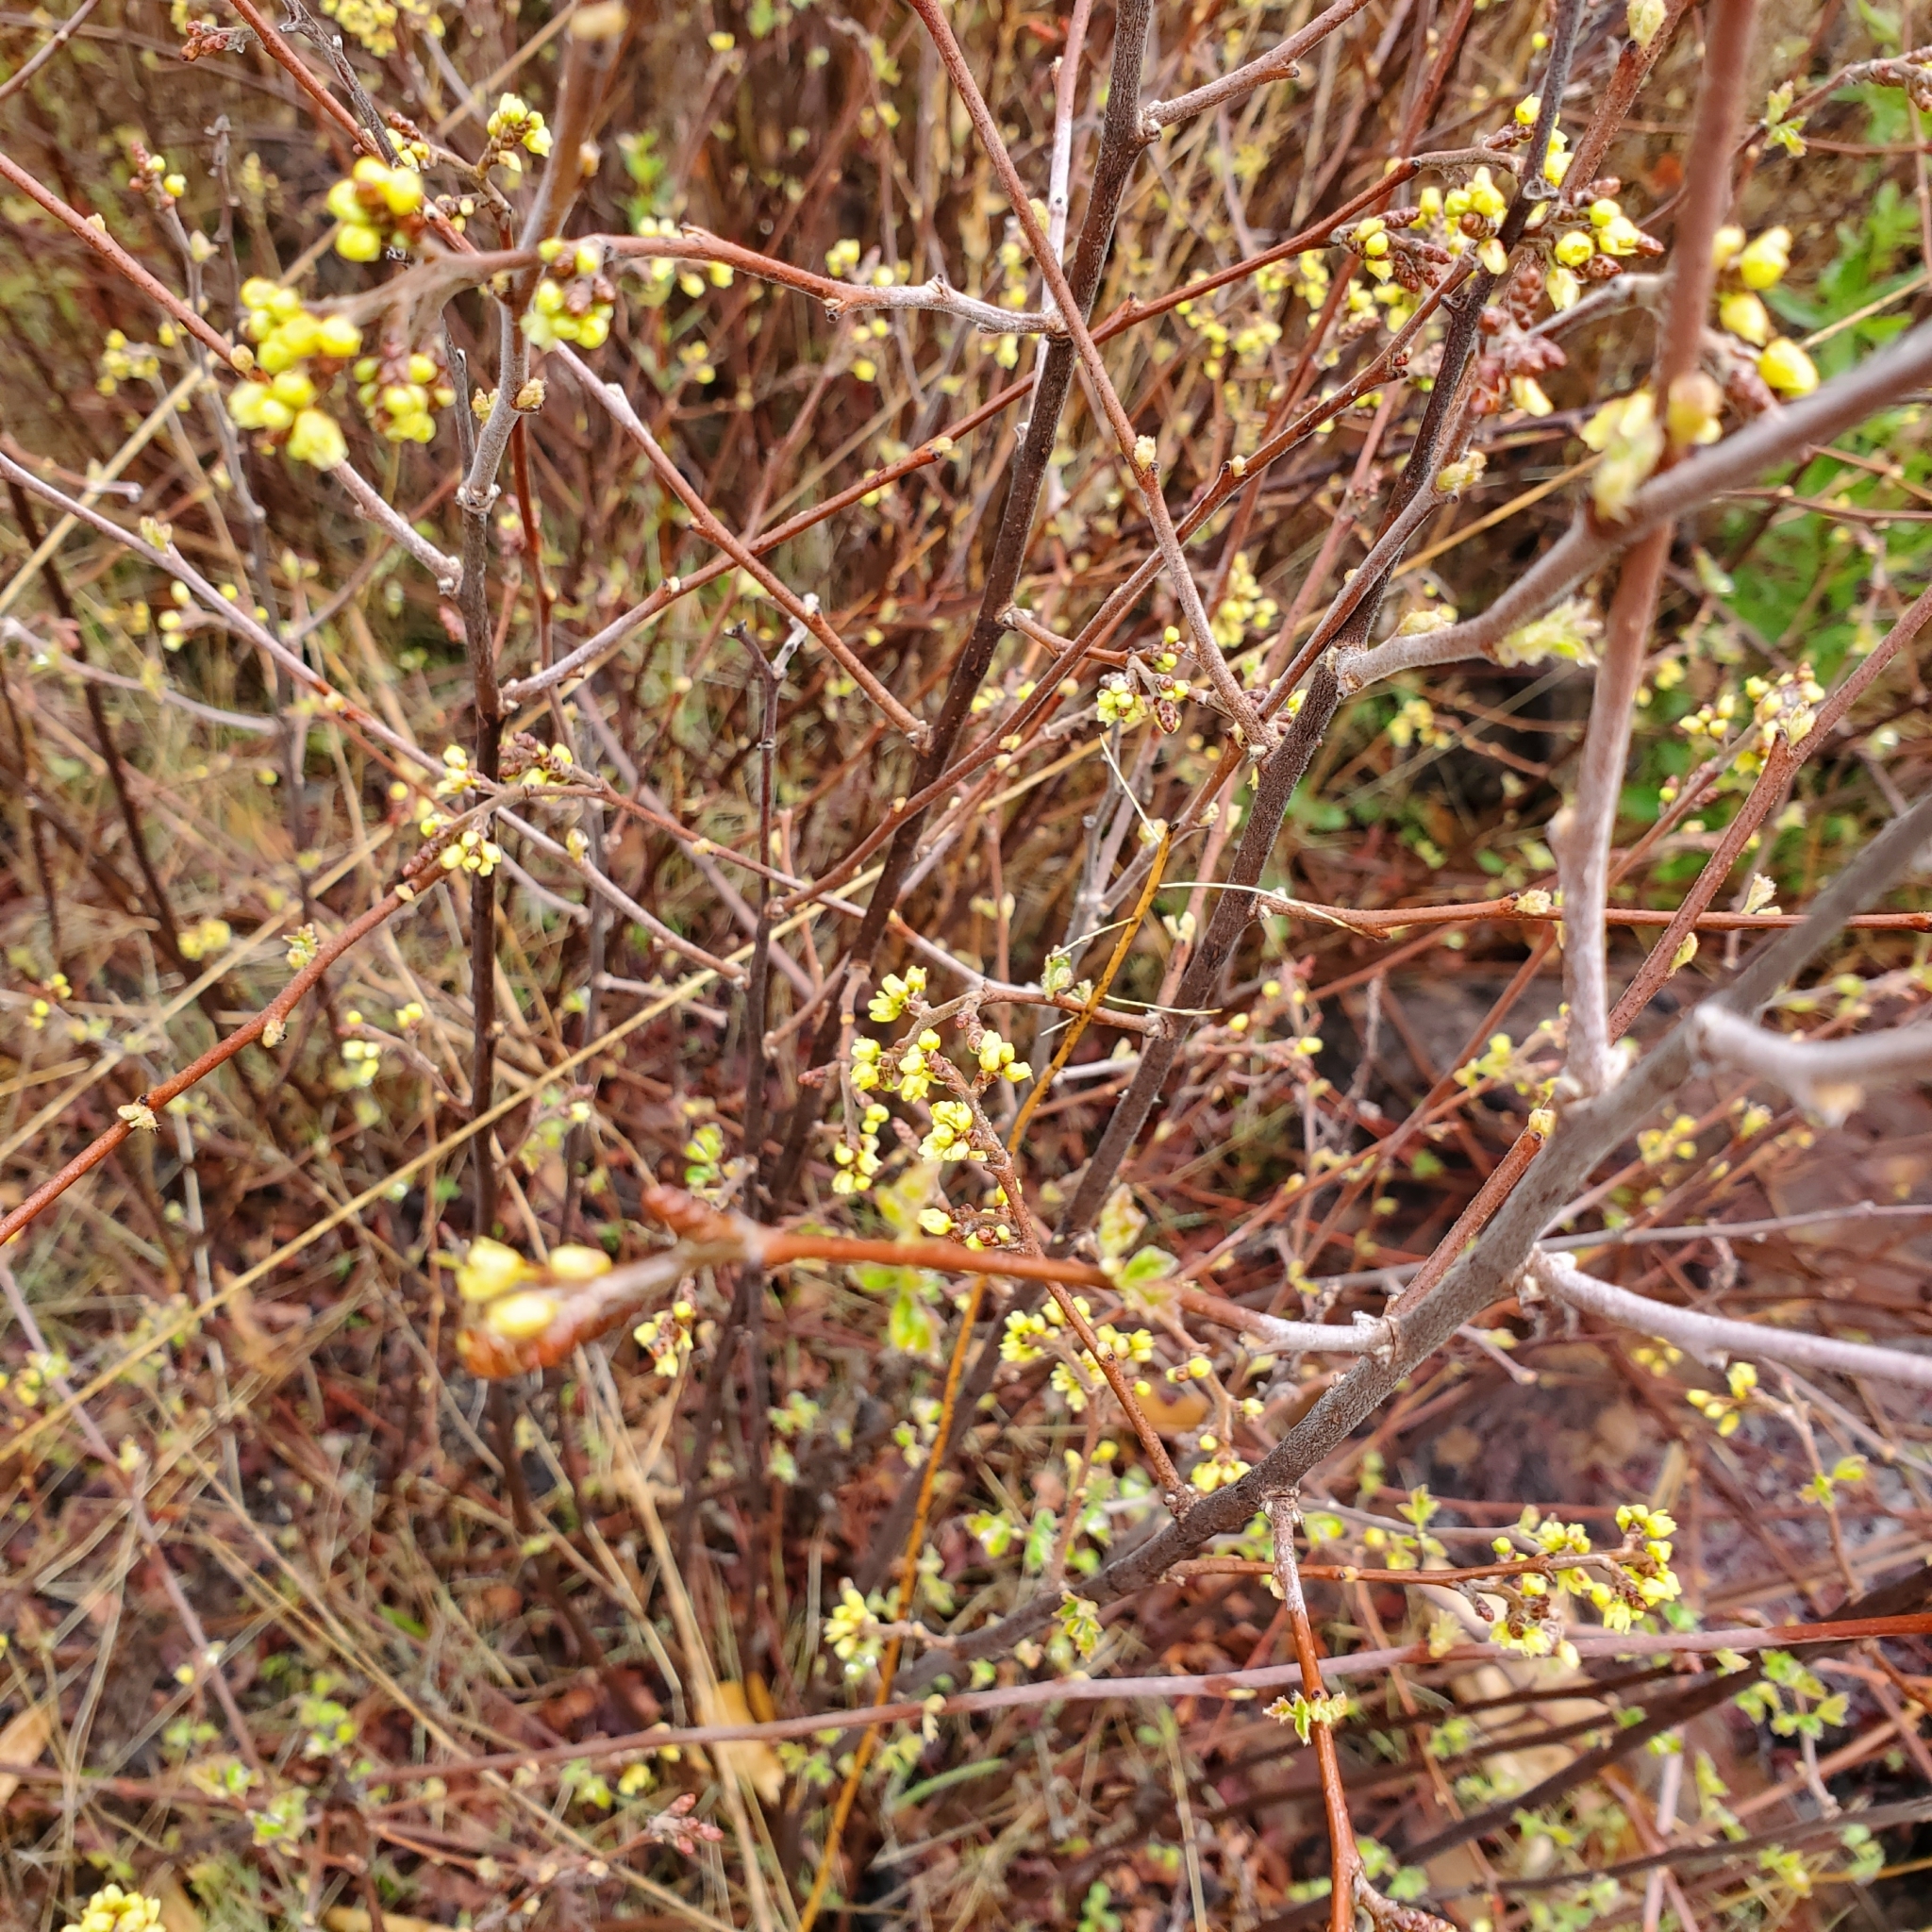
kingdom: Plantae
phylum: Tracheophyta
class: Magnoliopsida
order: Sapindales
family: Anacardiaceae
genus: Rhus
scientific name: Rhus aromatica
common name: Aromatic sumac
